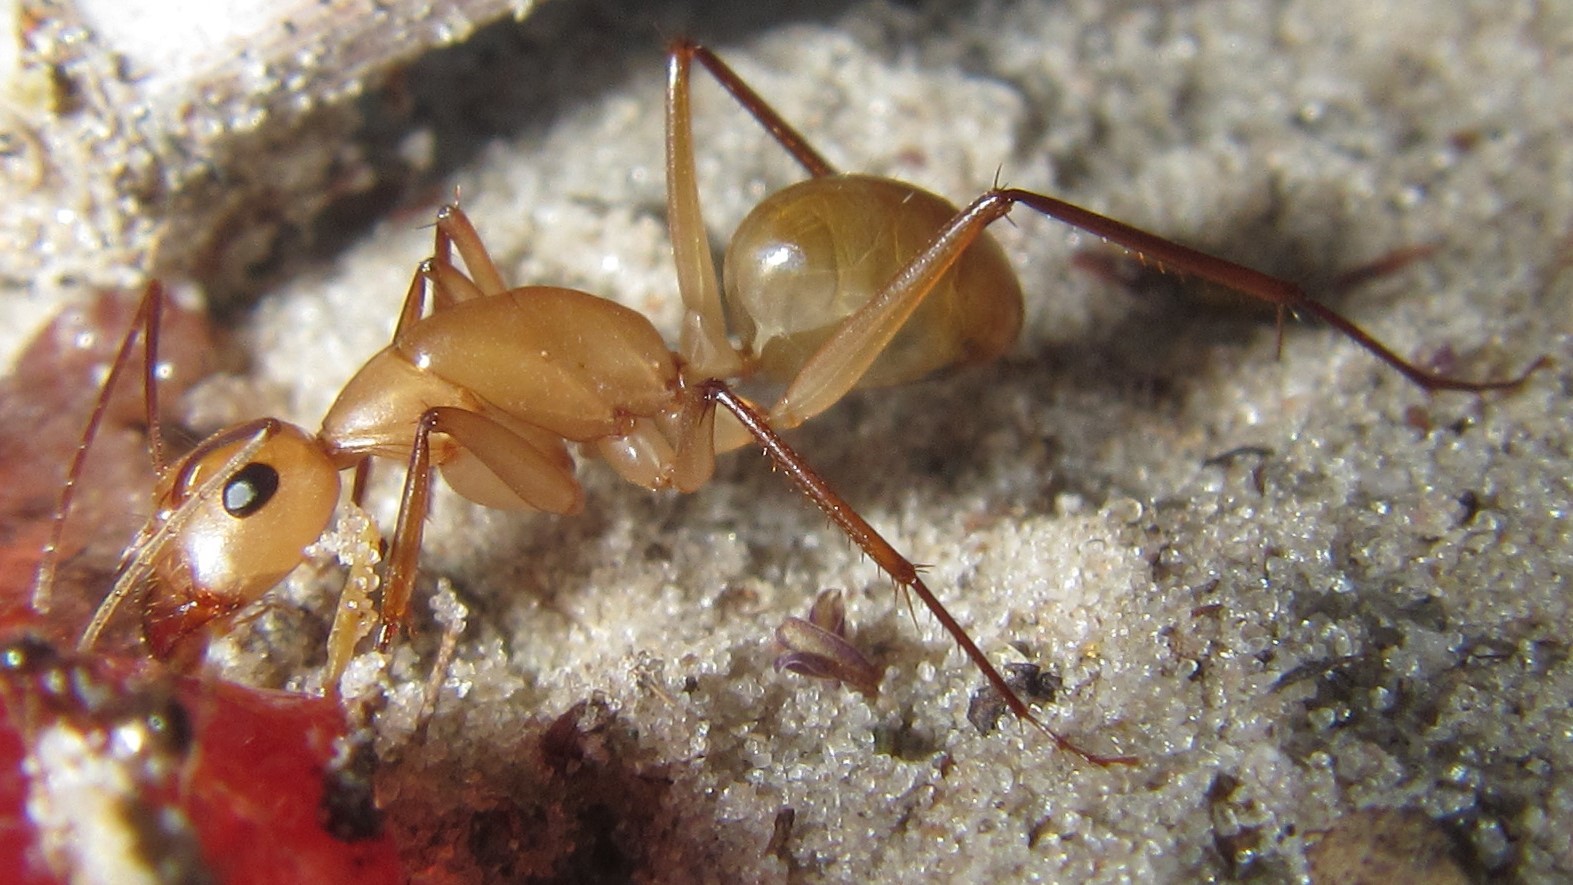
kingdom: Animalia
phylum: Arthropoda
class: Insecta
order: Hymenoptera
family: Formicidae
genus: Camponotus
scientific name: Camponotus mystaceus
